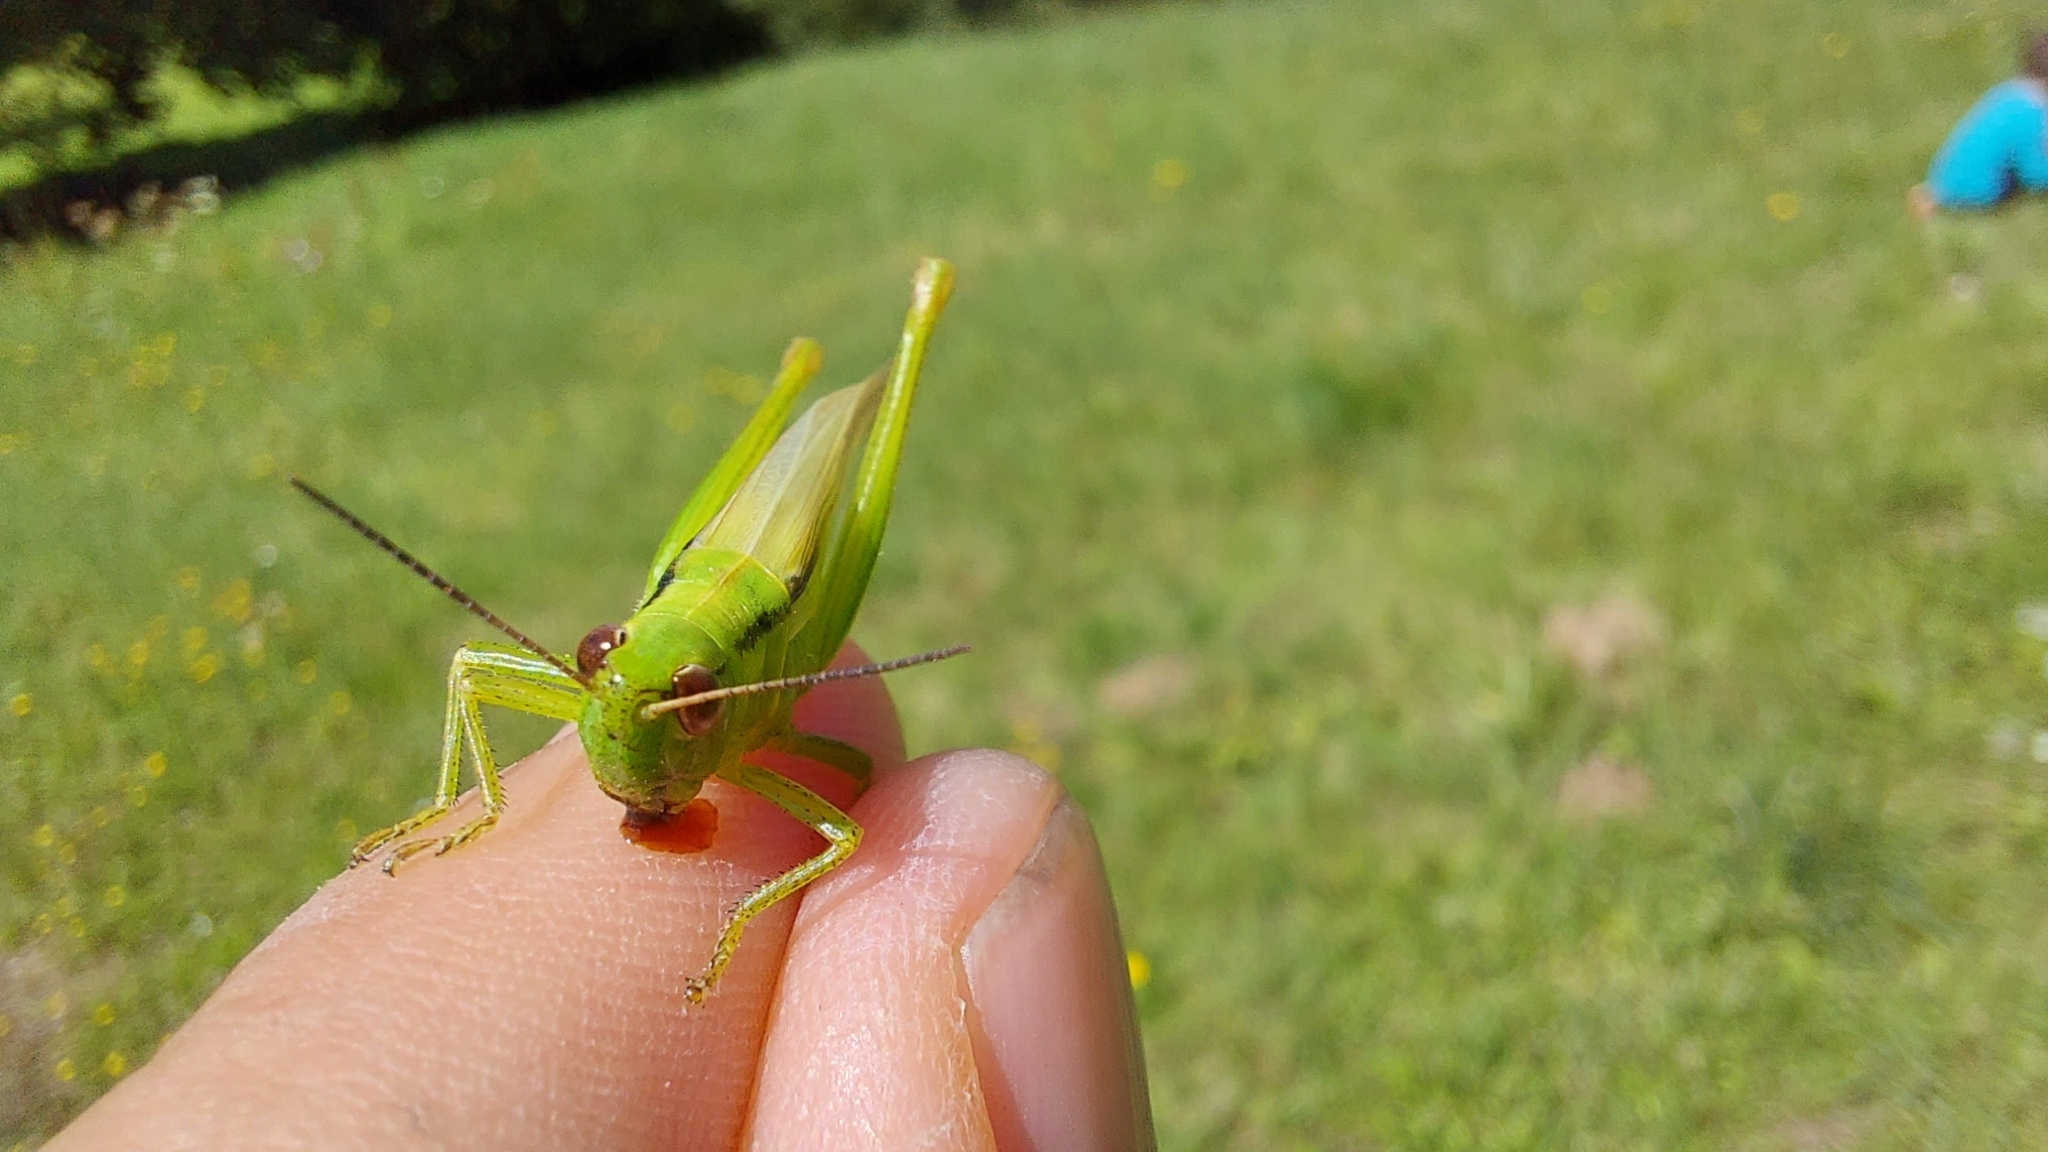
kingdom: Animalia
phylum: Arthropoda
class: Insecta
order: Orthoptera
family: Acrididae
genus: Mecostethus
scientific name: Mecostethus parapleurus
